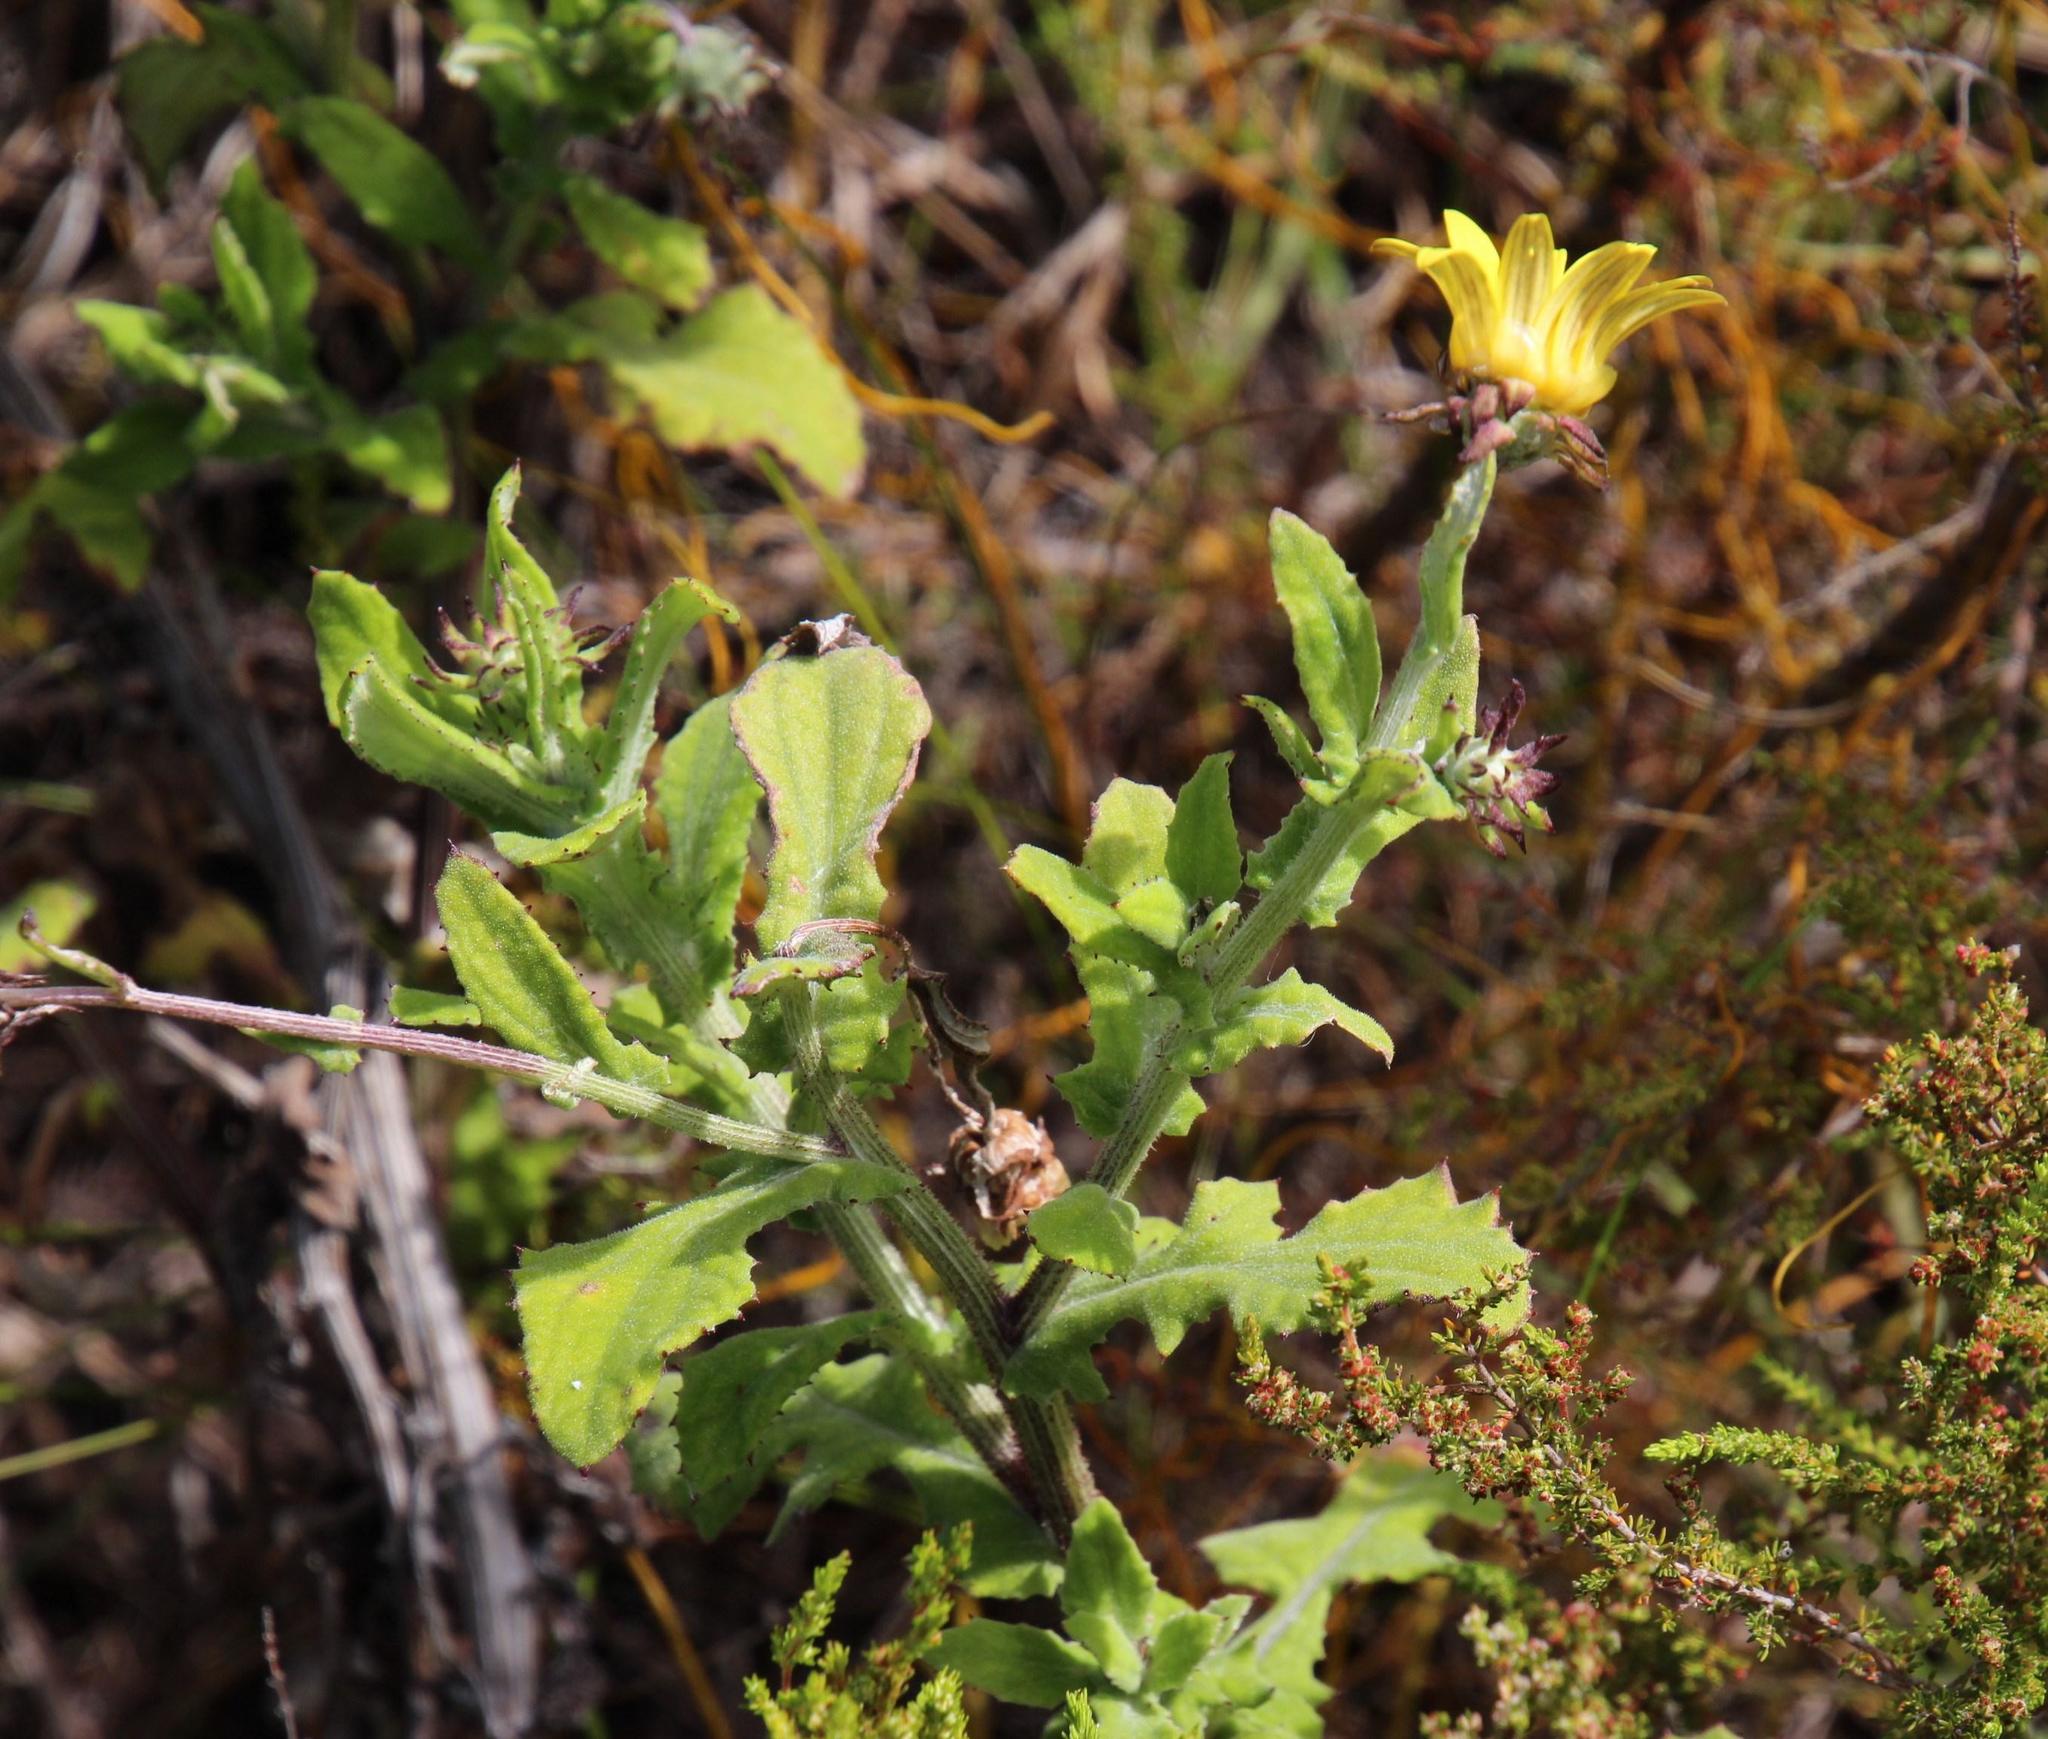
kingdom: Plantae
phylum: Tracheophyta
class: Magnoliopsida
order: Asterales
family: Asteraceae
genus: Arctotis
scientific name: Arctotis scabra
